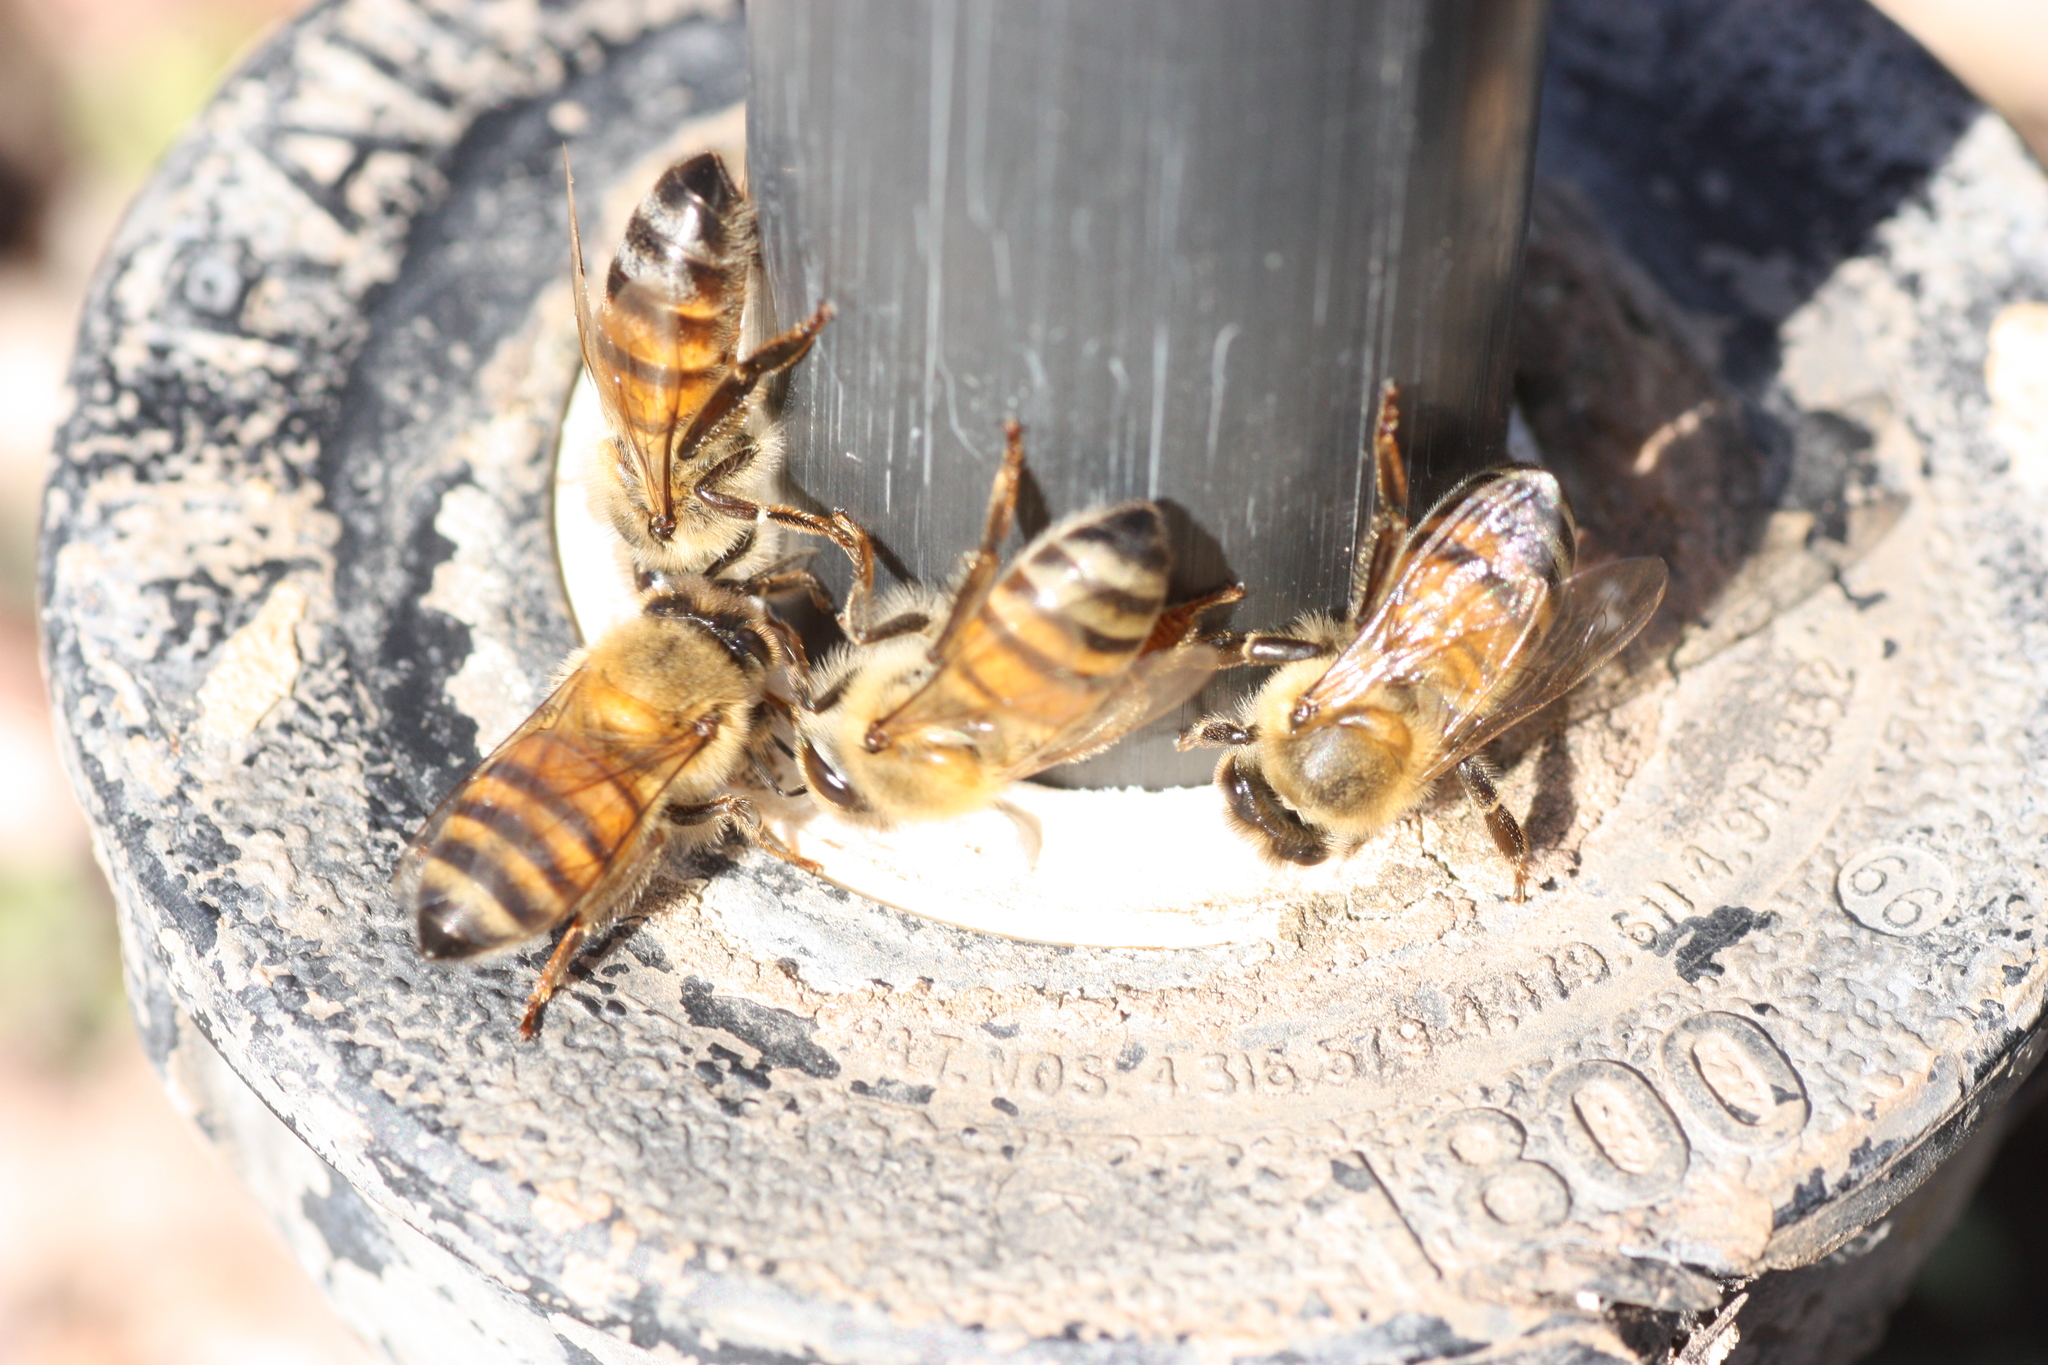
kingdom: Animalia
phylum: Arthropoda
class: Insecta
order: Hymenoptera
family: Apidae
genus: Apis
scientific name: Apis mellifera
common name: Honey bee
